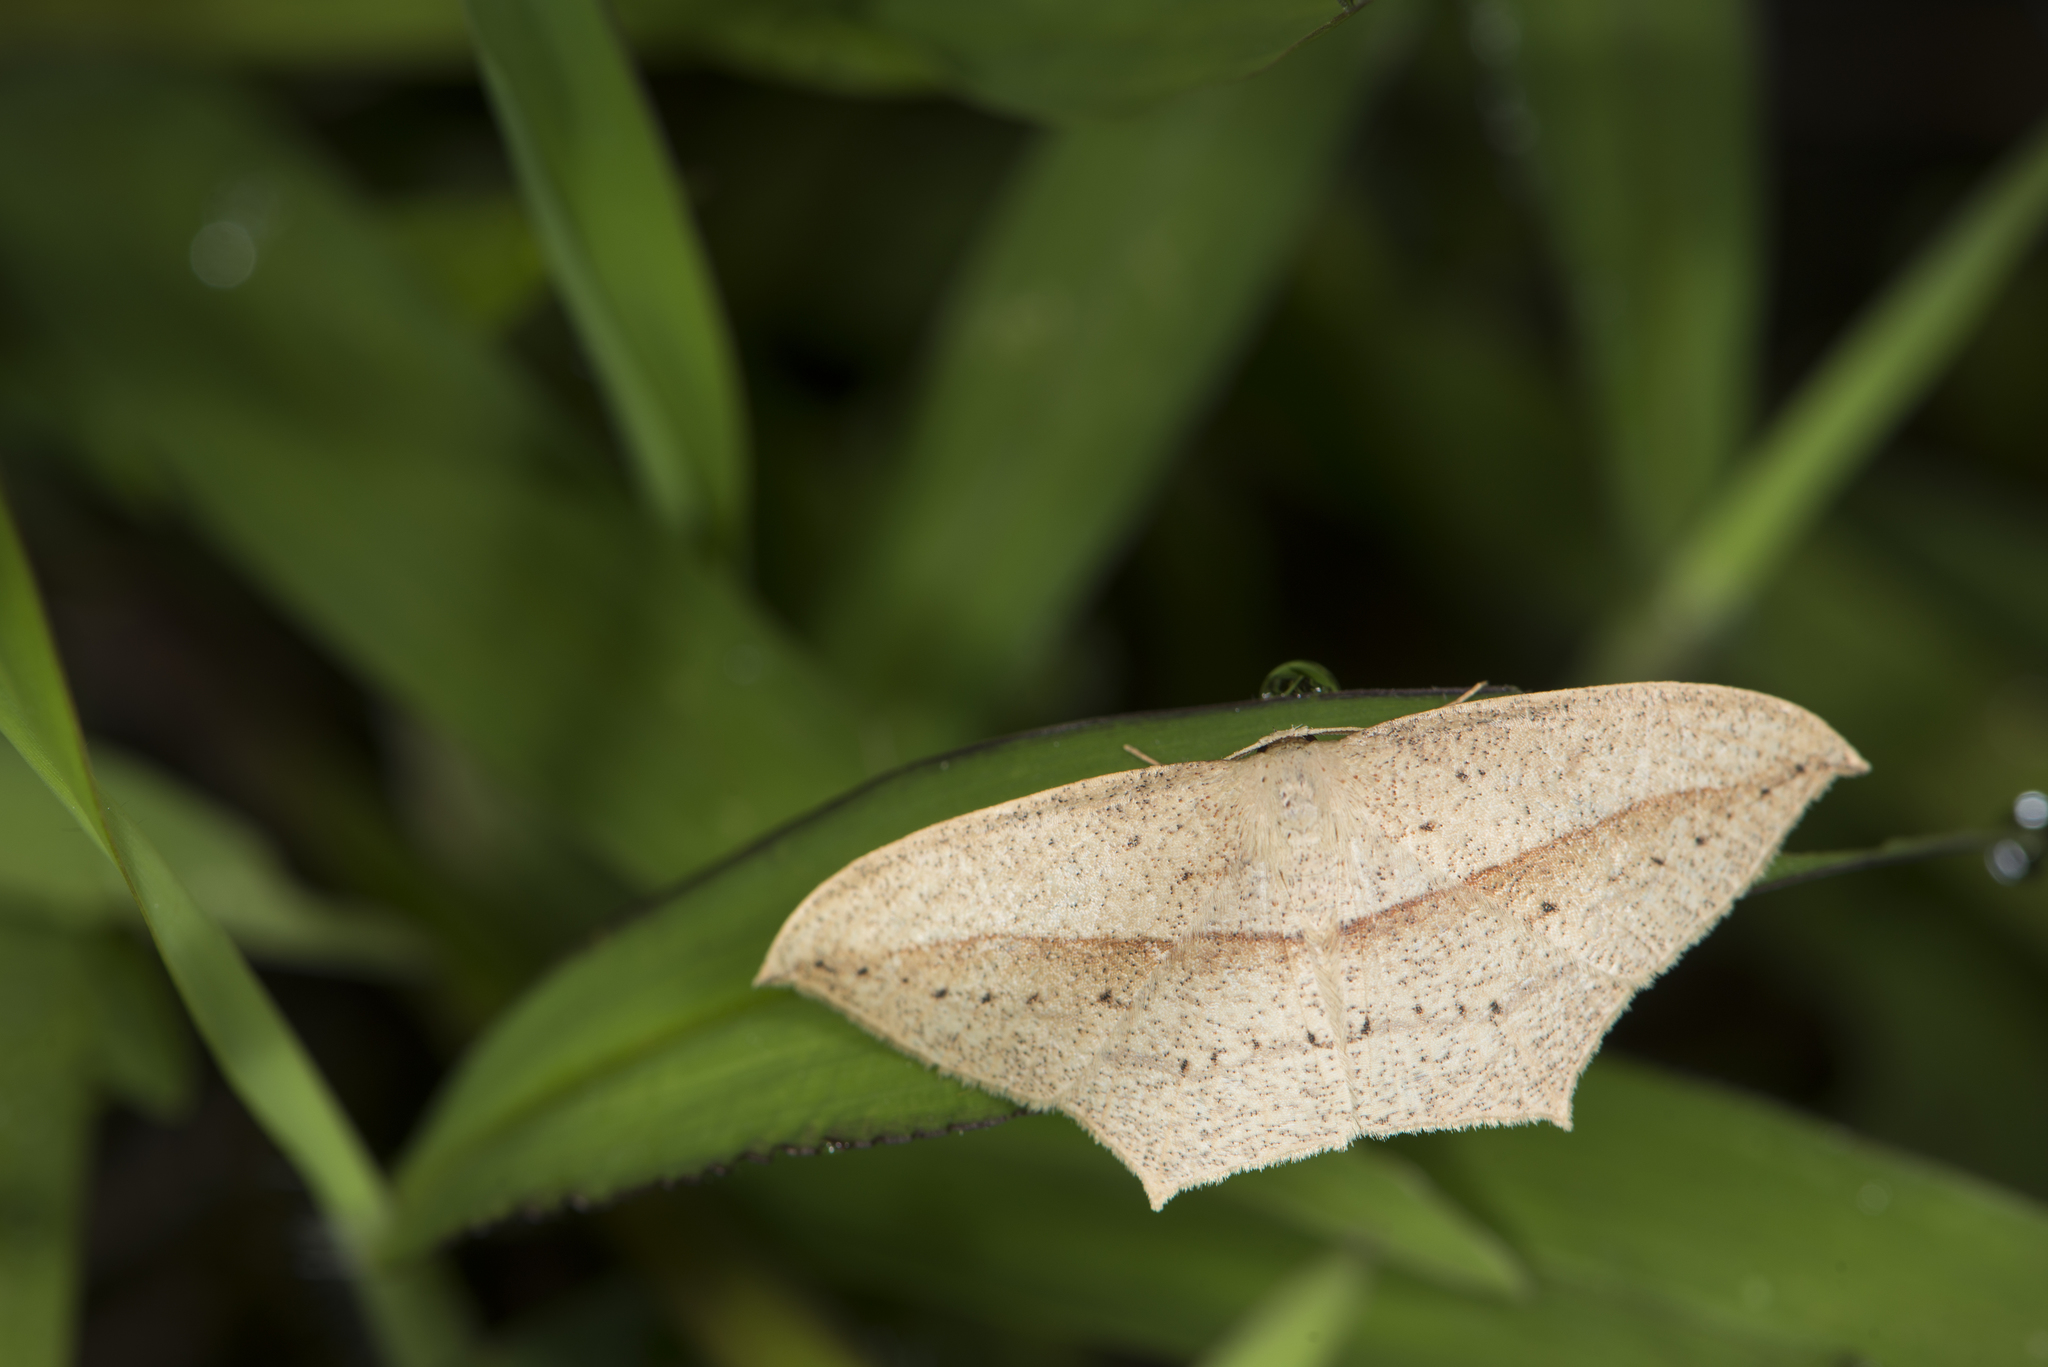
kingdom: Animalia
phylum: Arthropoda
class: Insecta
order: Lepidoptera
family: Geometridae
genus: Timandra
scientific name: Timandra extremaria
